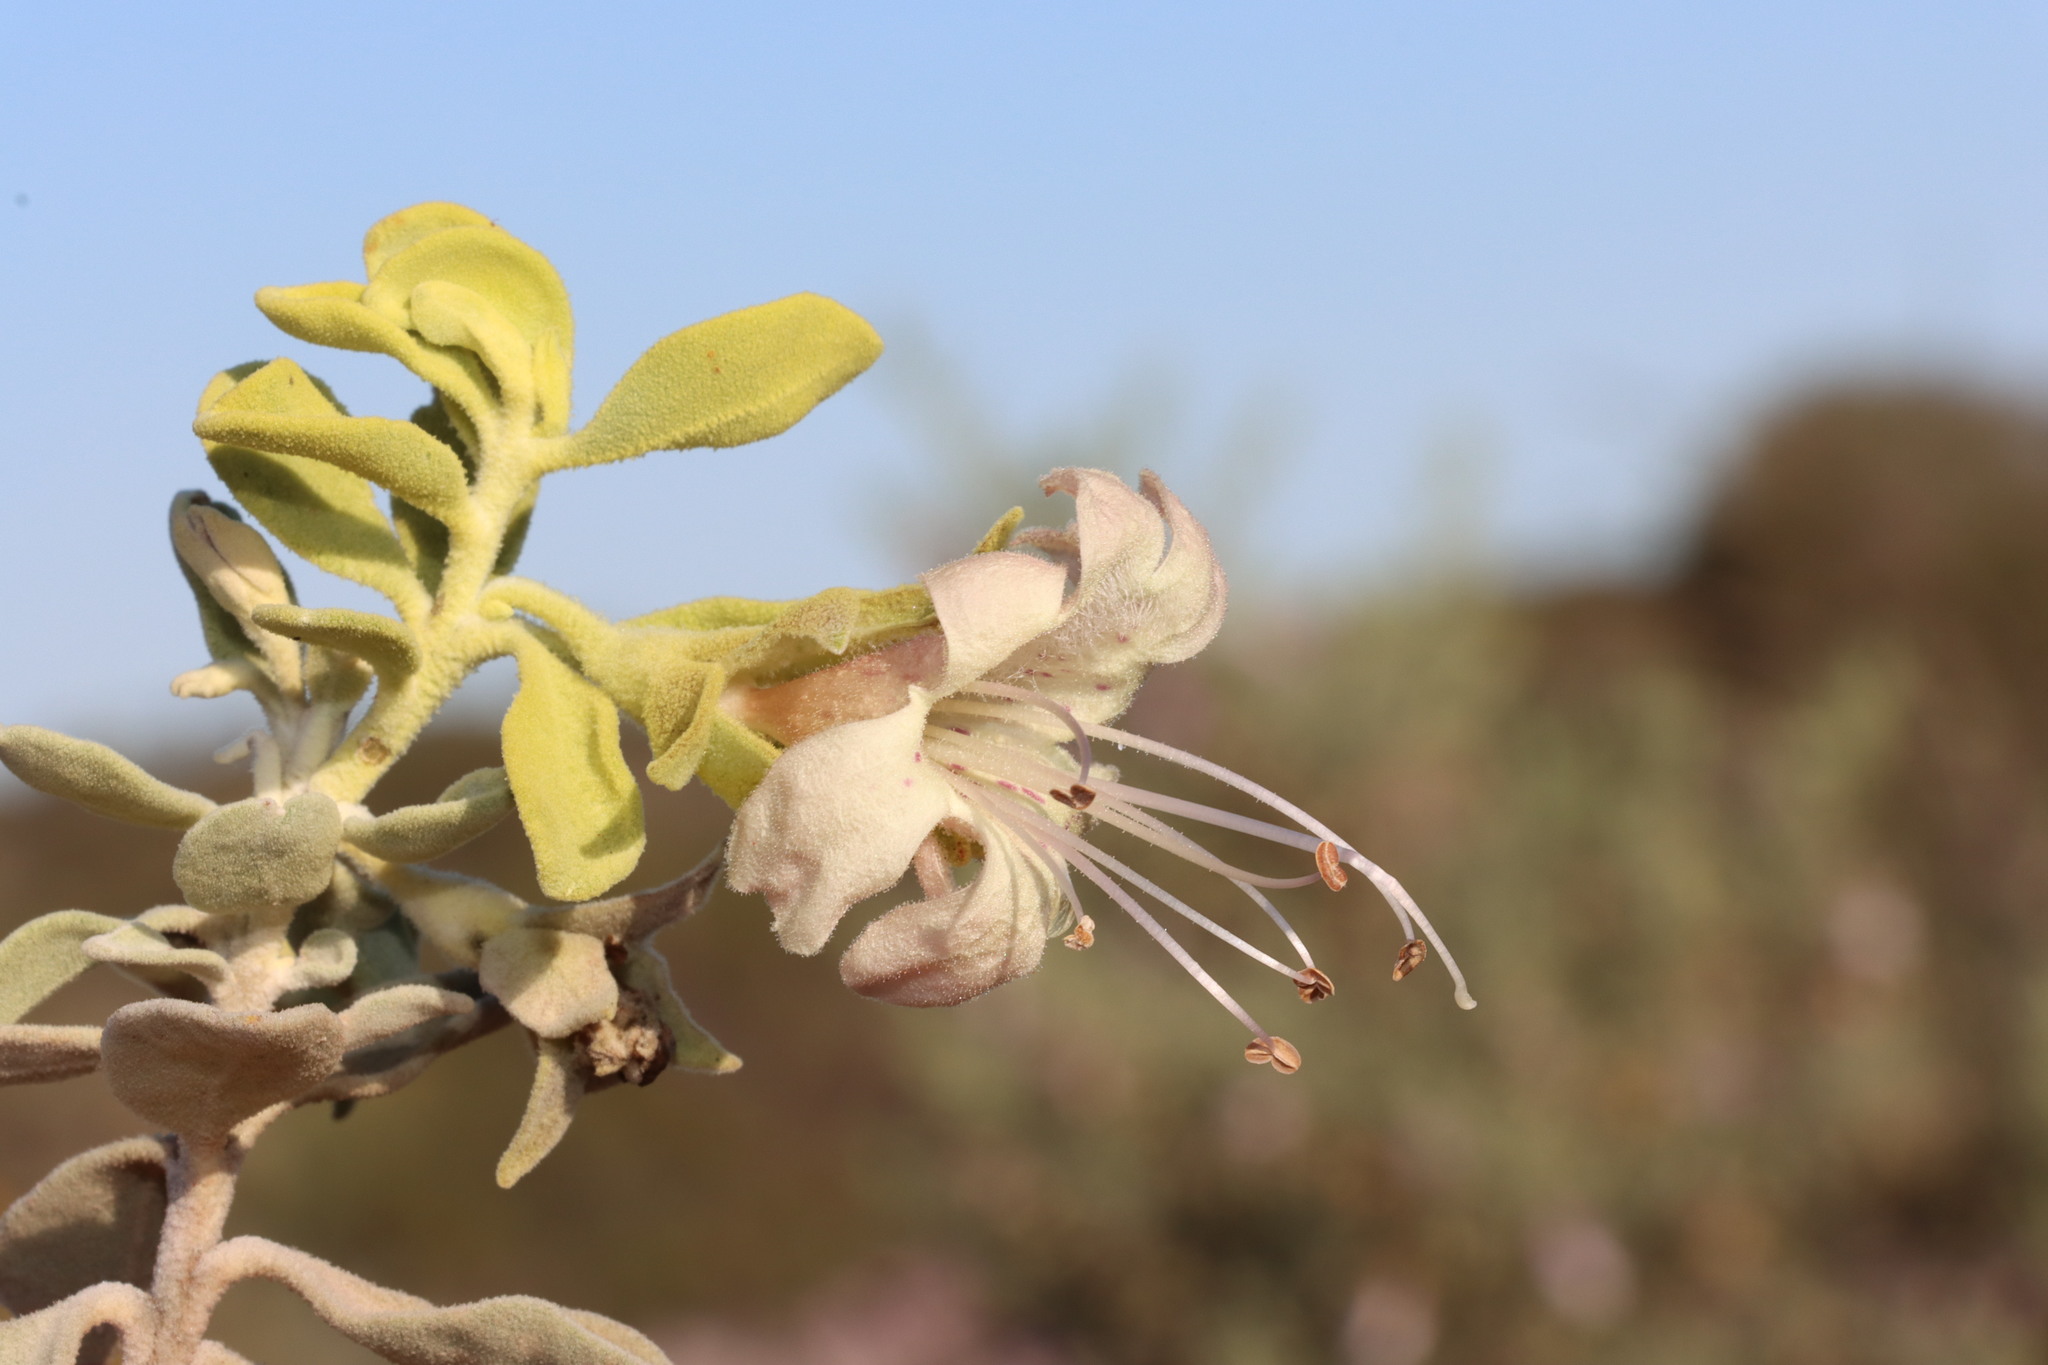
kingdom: Plantae
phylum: Tracheophyta
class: Magnoliopsida
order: Lamiales
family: Scrophulariaceae
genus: Eremophila
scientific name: Eremophila forrestii
